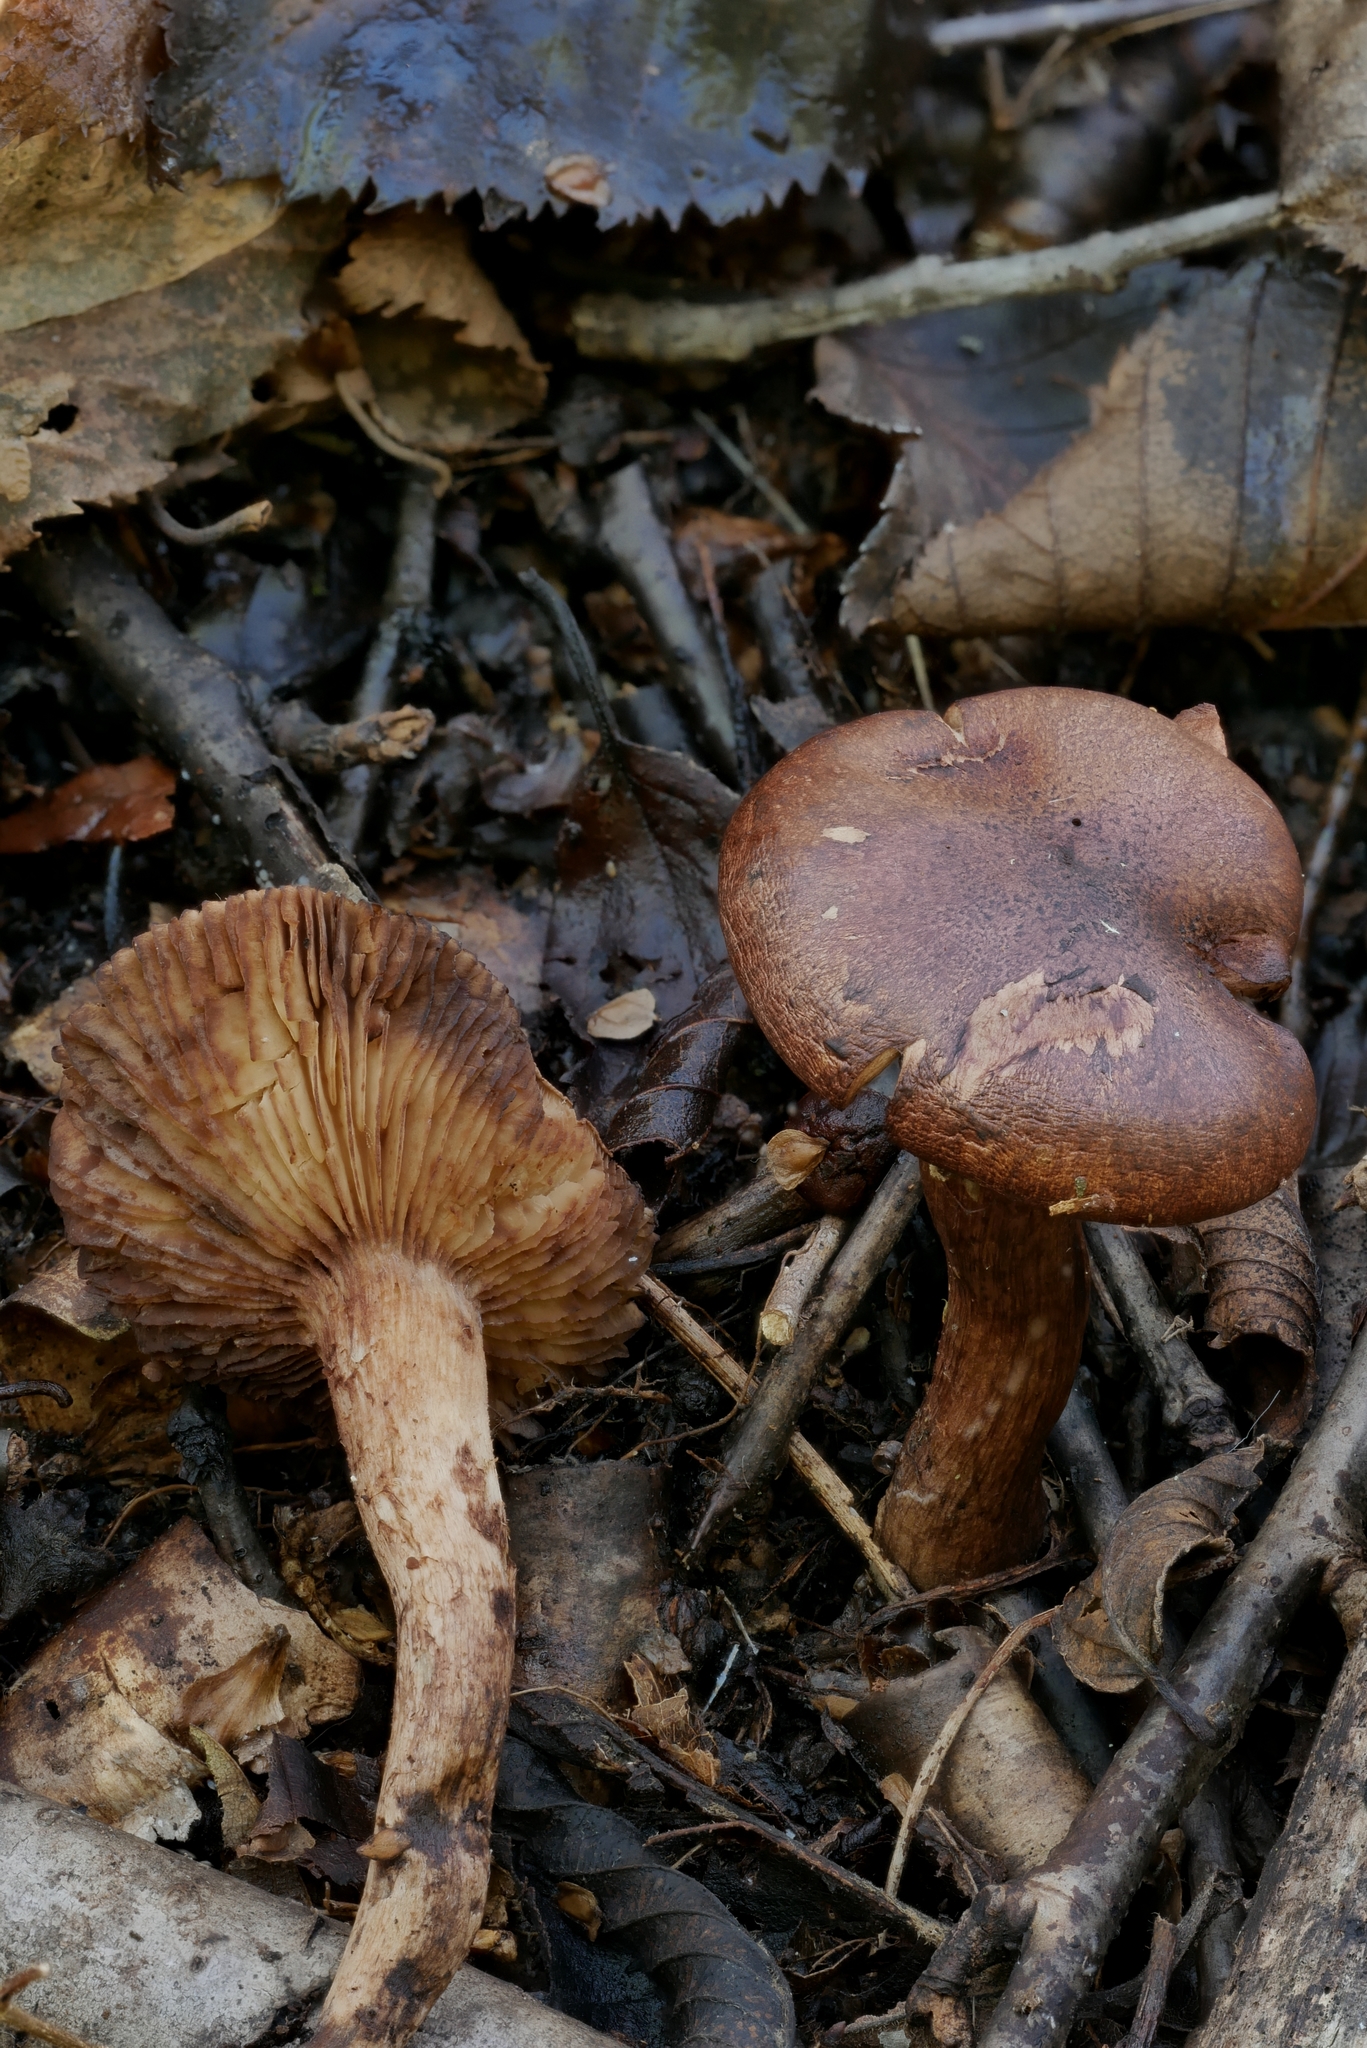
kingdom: Fungi
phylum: Basidiomycota
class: Agaricomycetes
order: Agaricales
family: Tricholomataceae
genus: Tricholoma
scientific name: Tricholoma fulvum
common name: Birch knight
